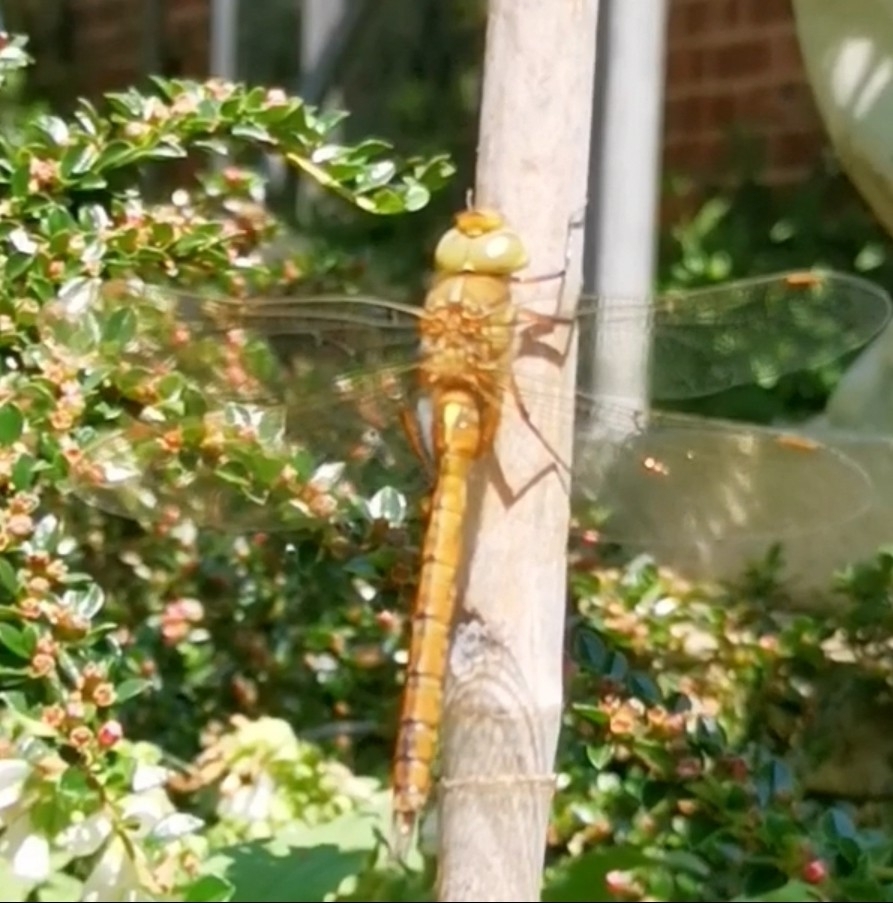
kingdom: Animalia
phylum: Arthropoda
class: Insecta
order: Odonata
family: Aeshnidae
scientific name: Aeshnidae
